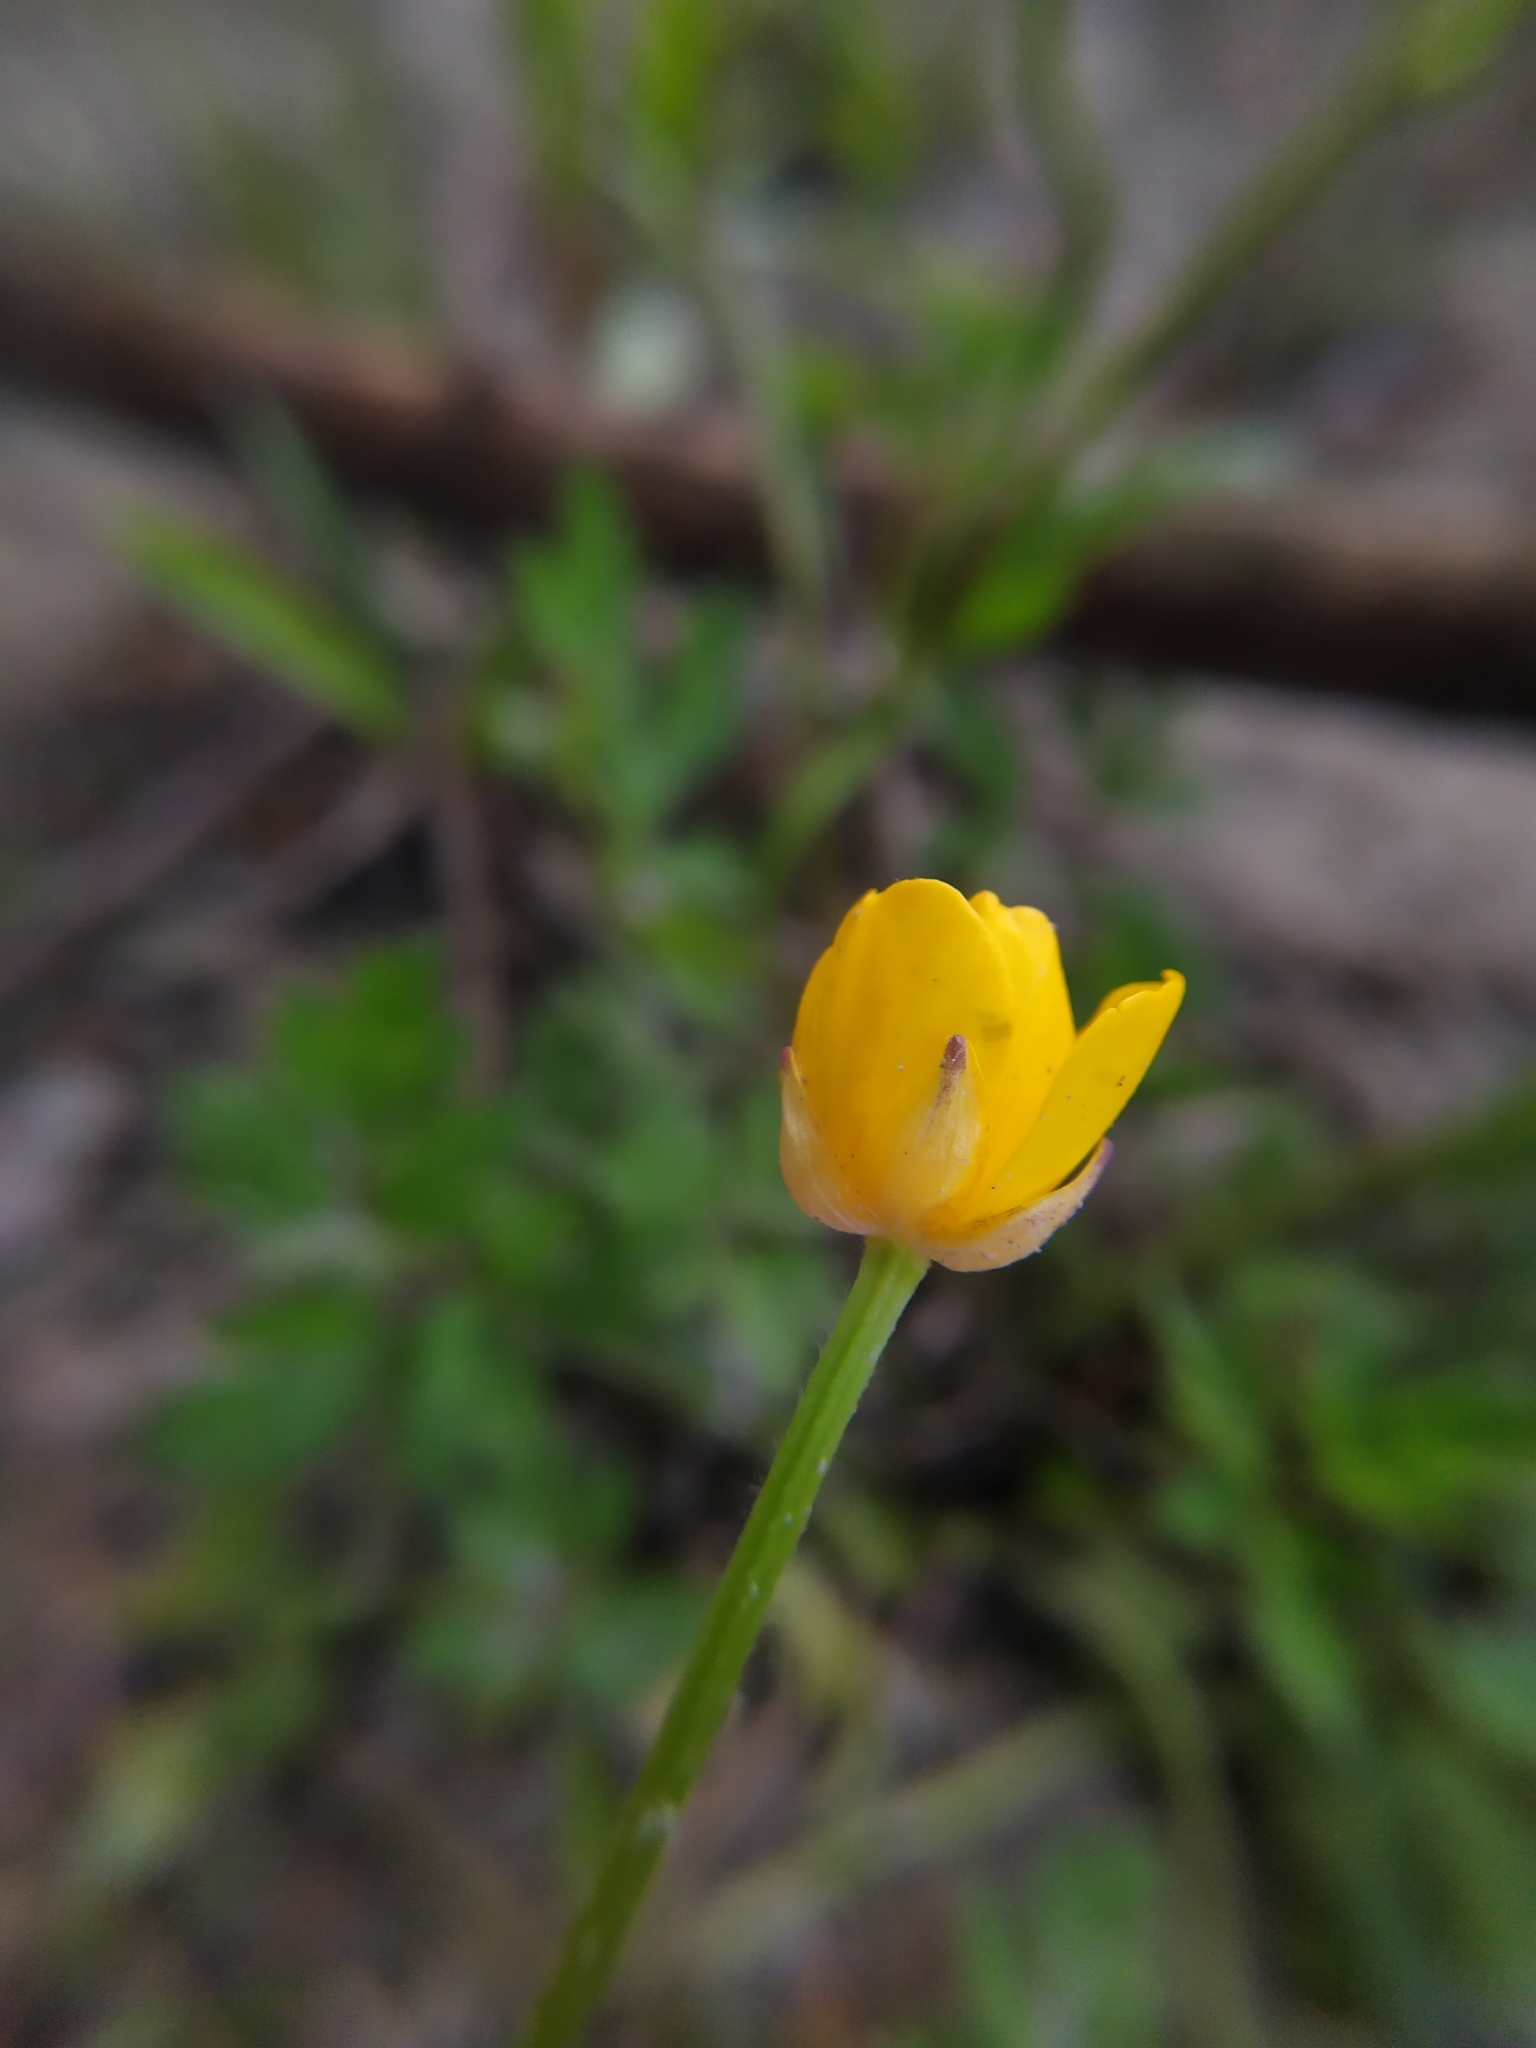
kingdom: Plantae
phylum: Tracheophyta
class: Magnoliopsida
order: Ranunculales
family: Ranunculaceae
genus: Ranunculus
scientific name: Ranunculus repens
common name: Creeping buttercup
